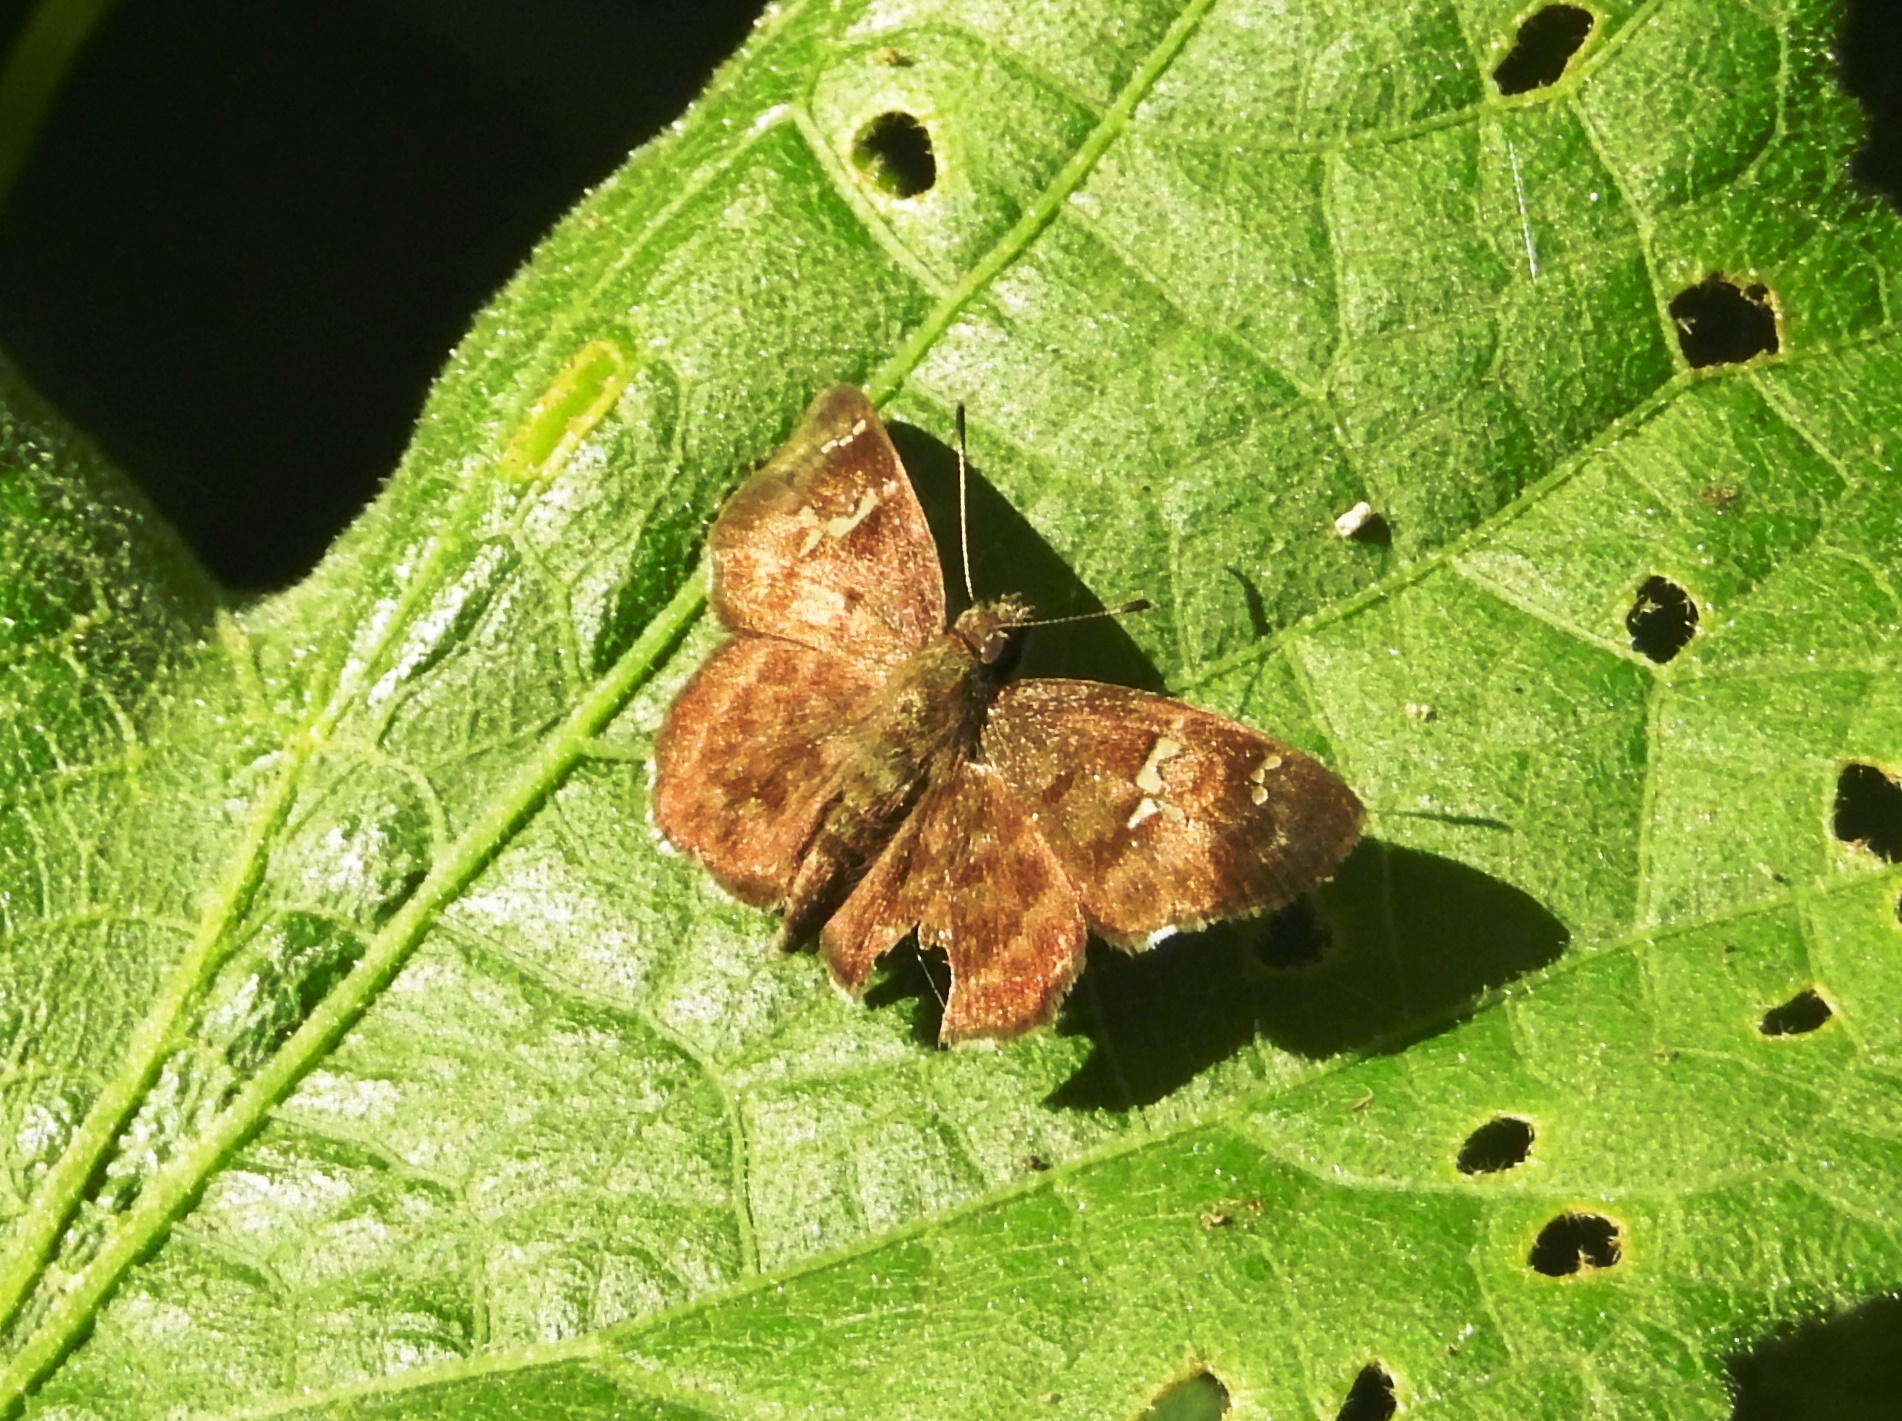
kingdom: Animalia
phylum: Arthropoda
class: Insecta
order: Lepidoptera
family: Hesperiidae
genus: Sarangesa
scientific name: Sarangesa dasahara
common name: Common small flat
